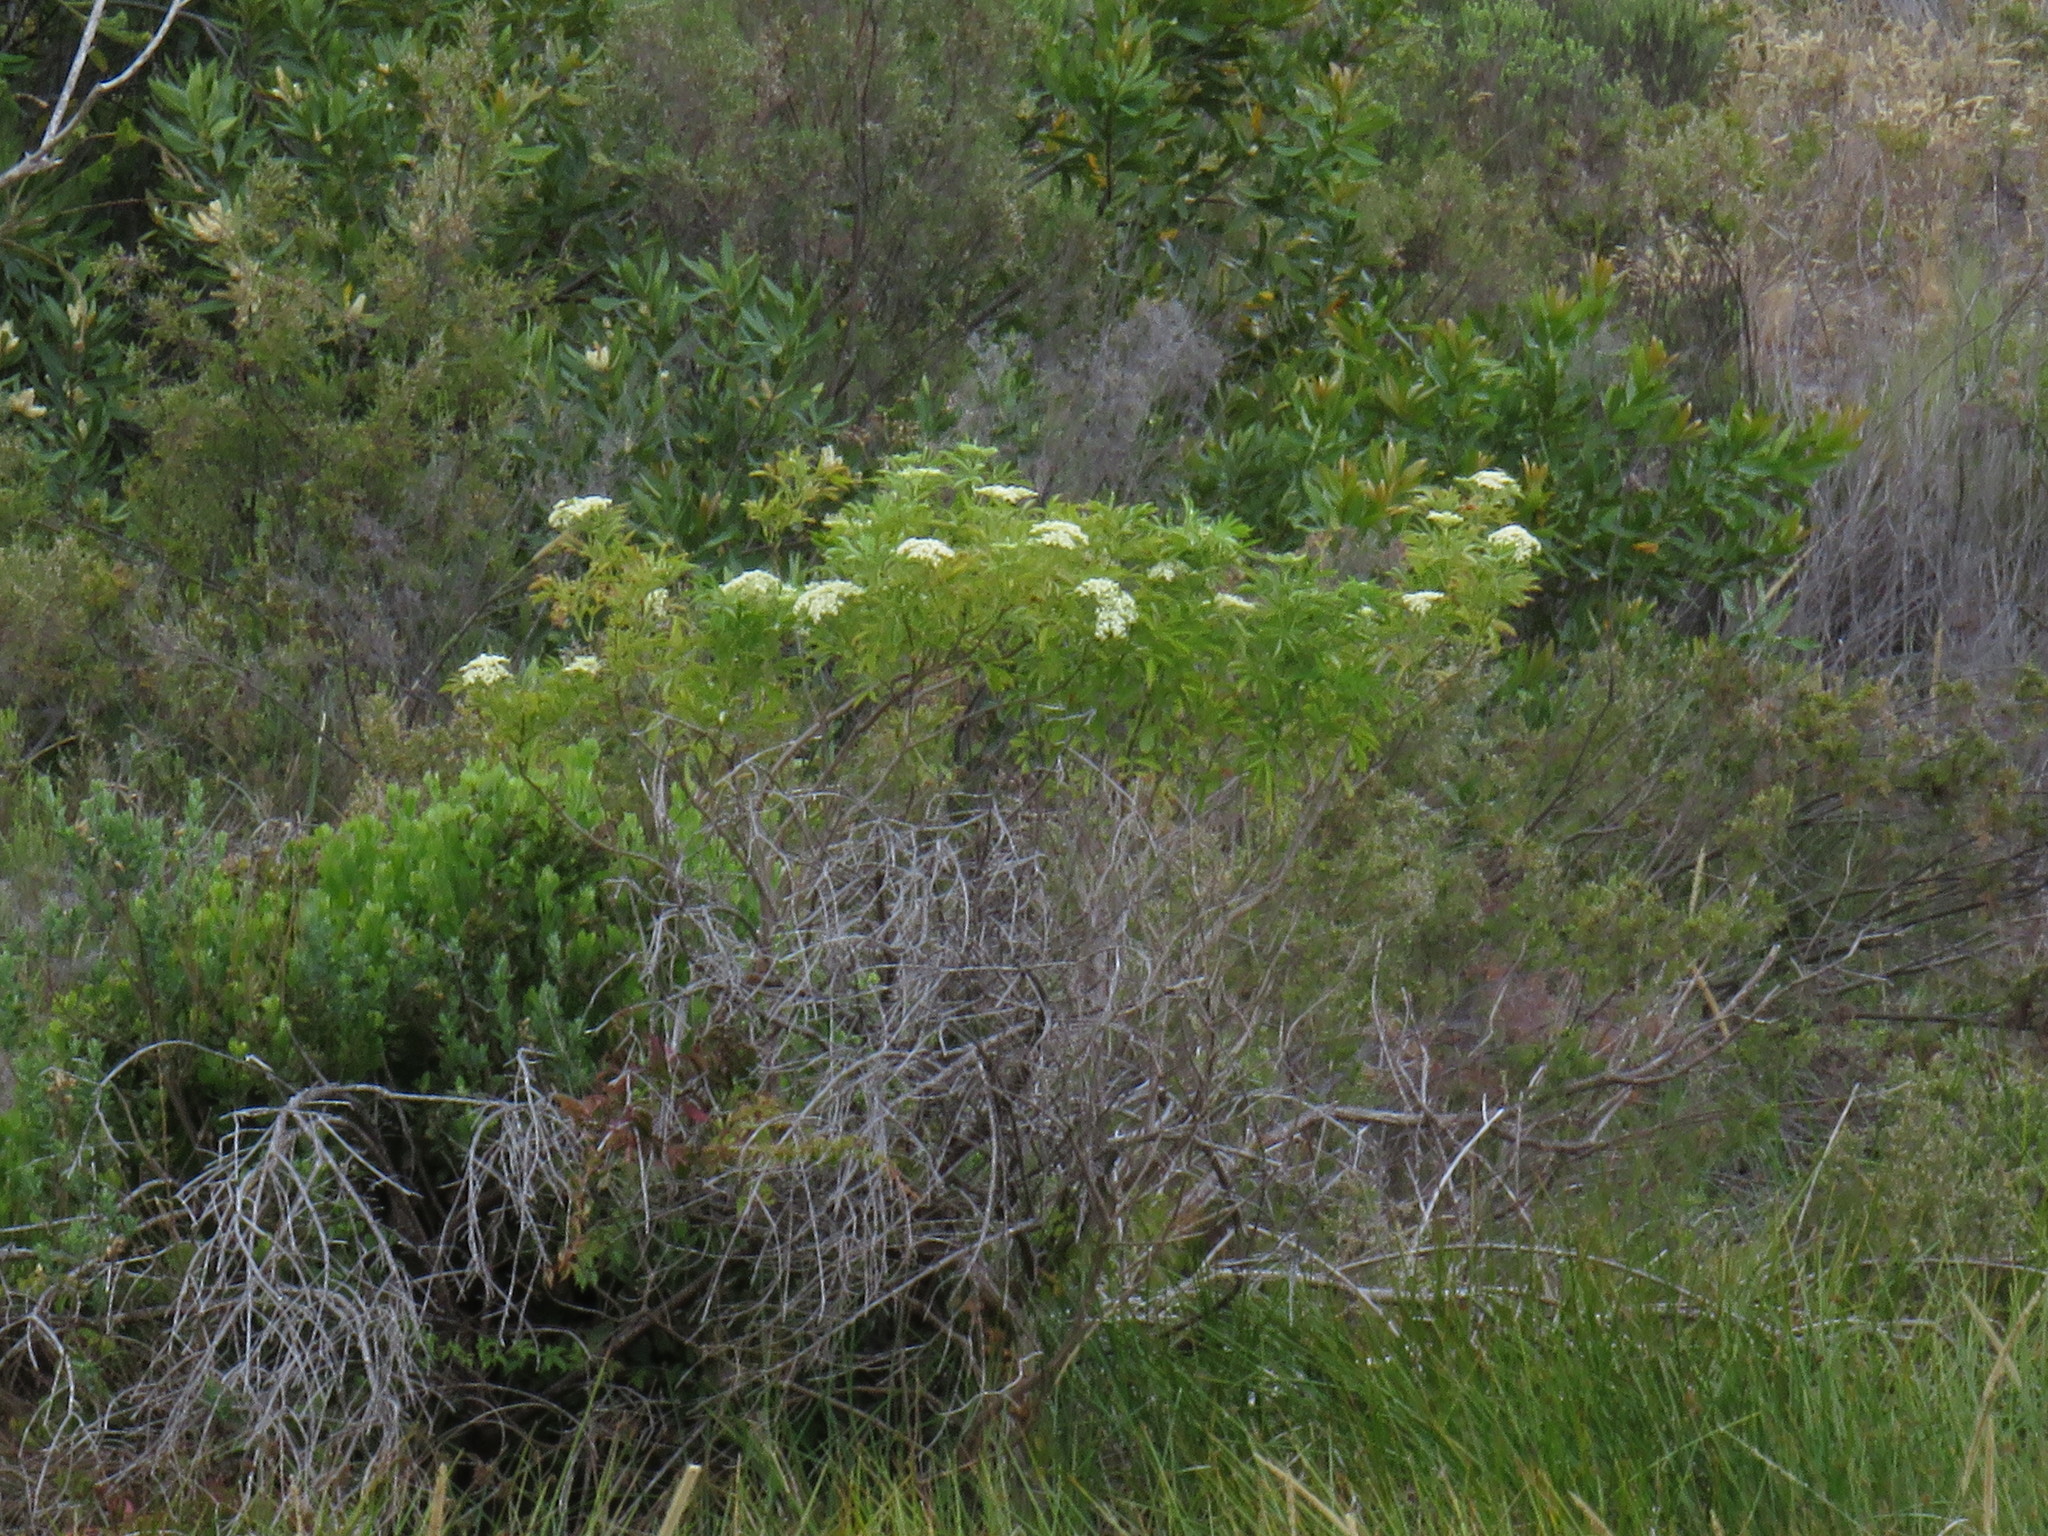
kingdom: Plantae
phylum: Tracheophyta
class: Magnoliopsida
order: Dipsacales
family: Viburnaceae
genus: Sambucus
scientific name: Sambucus nigra
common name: Elder
